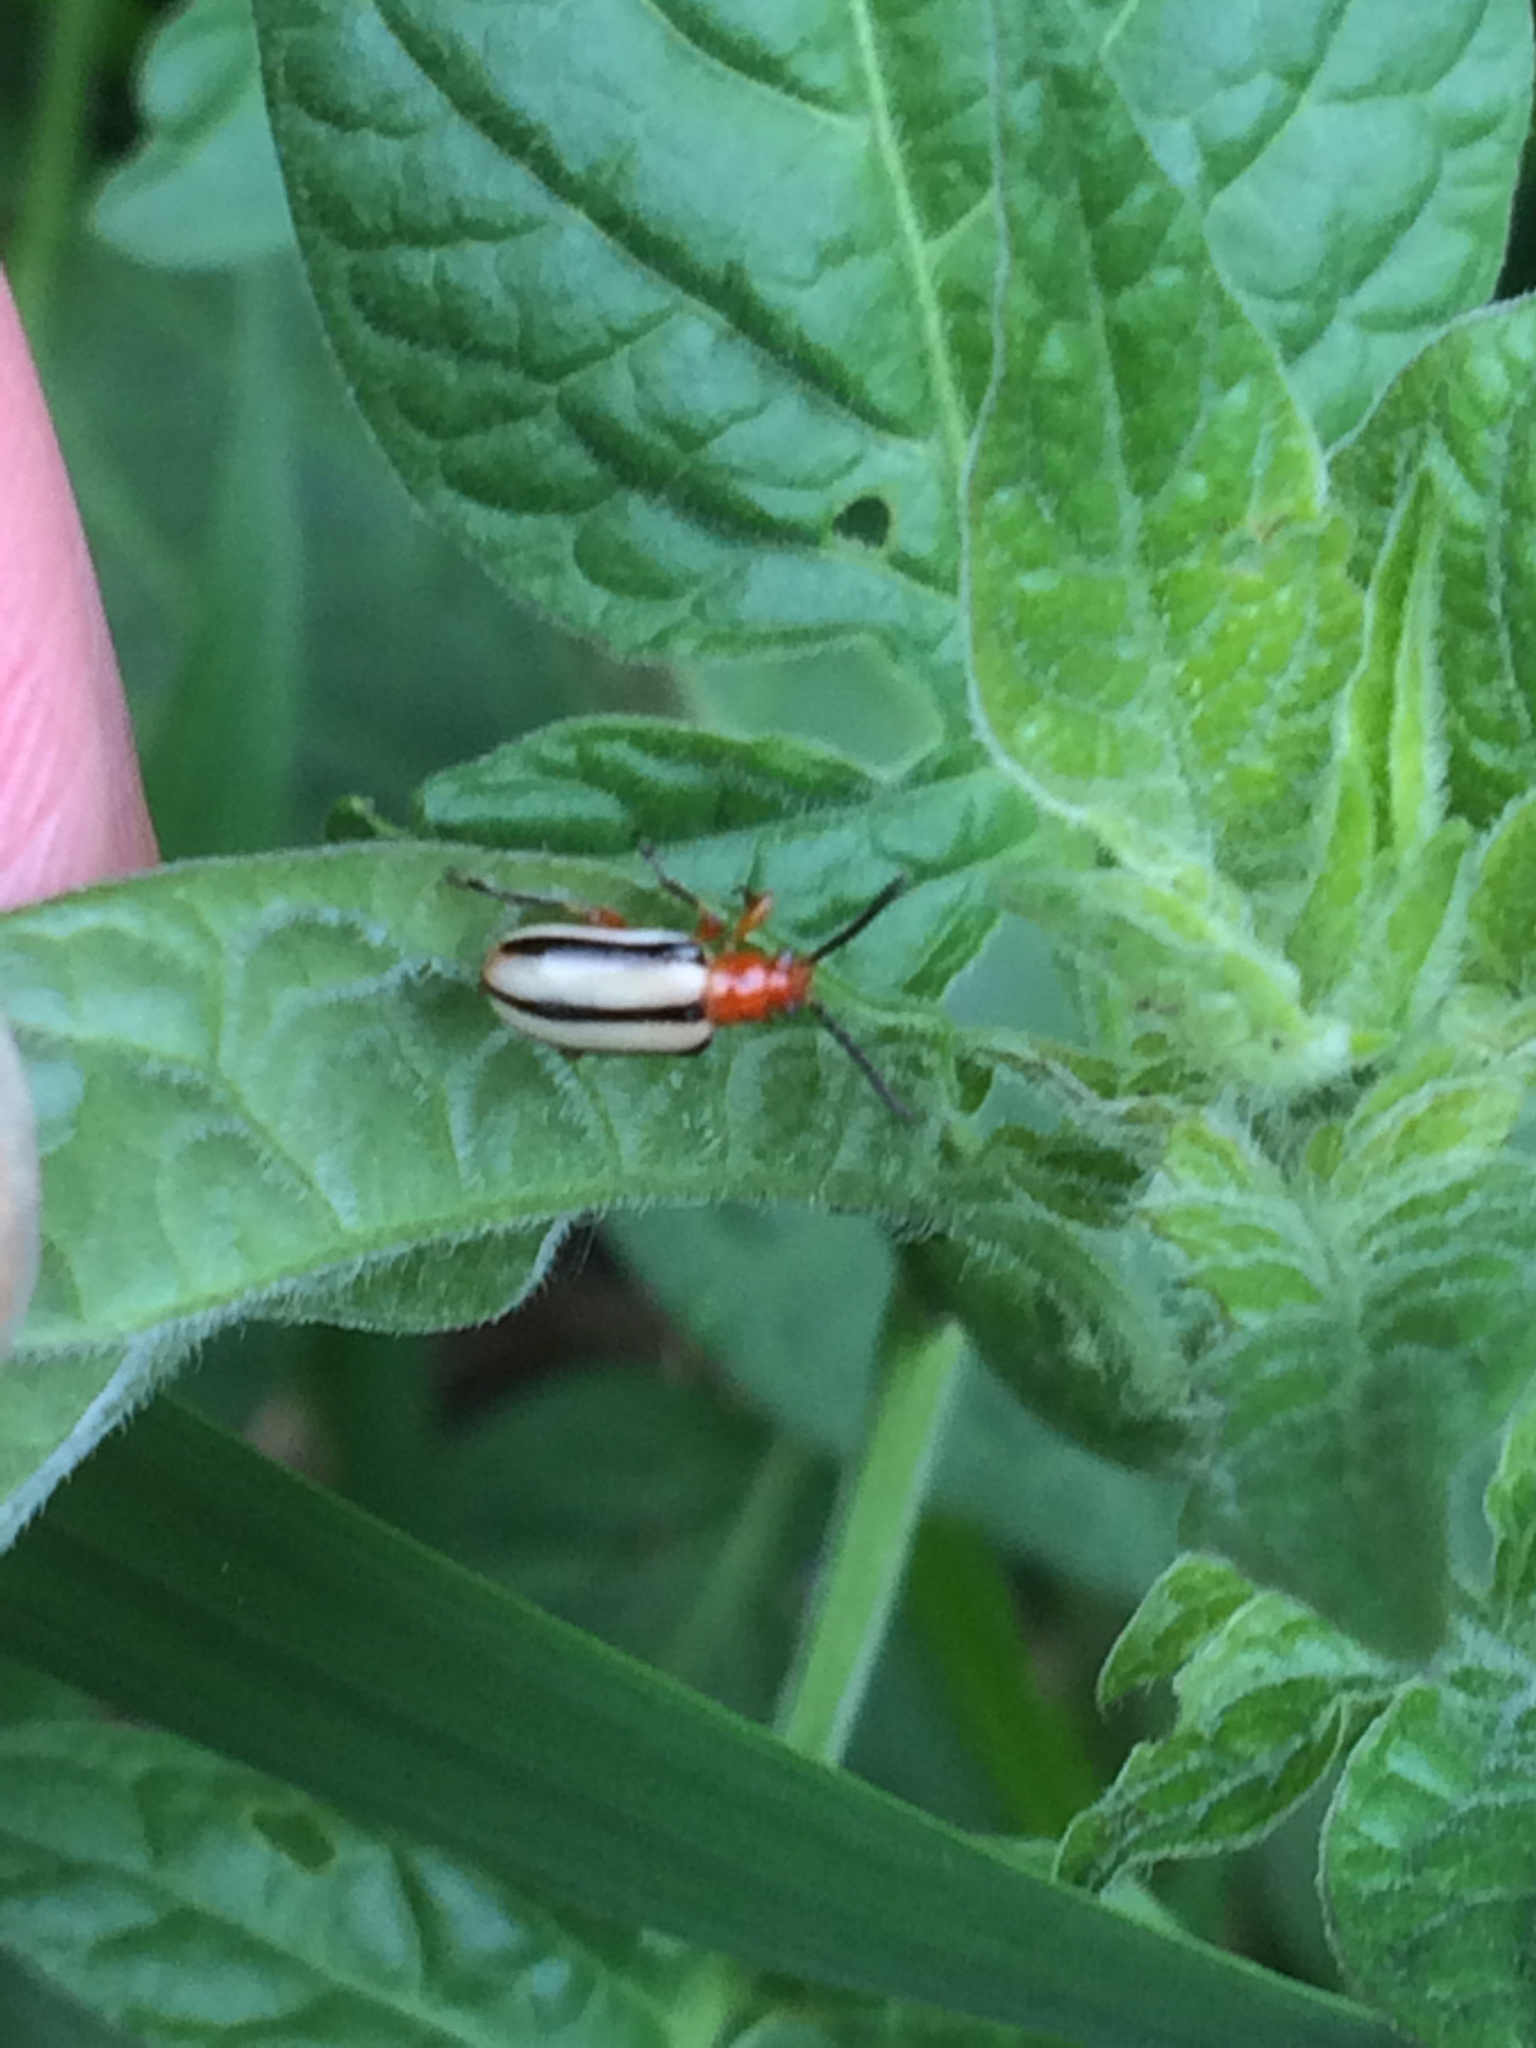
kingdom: Animalia
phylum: Arthropoda
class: Insecta
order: Coleoptera
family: Chrysomelidae
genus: Lema
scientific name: Lema daturaphila
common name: Leaf beetle
